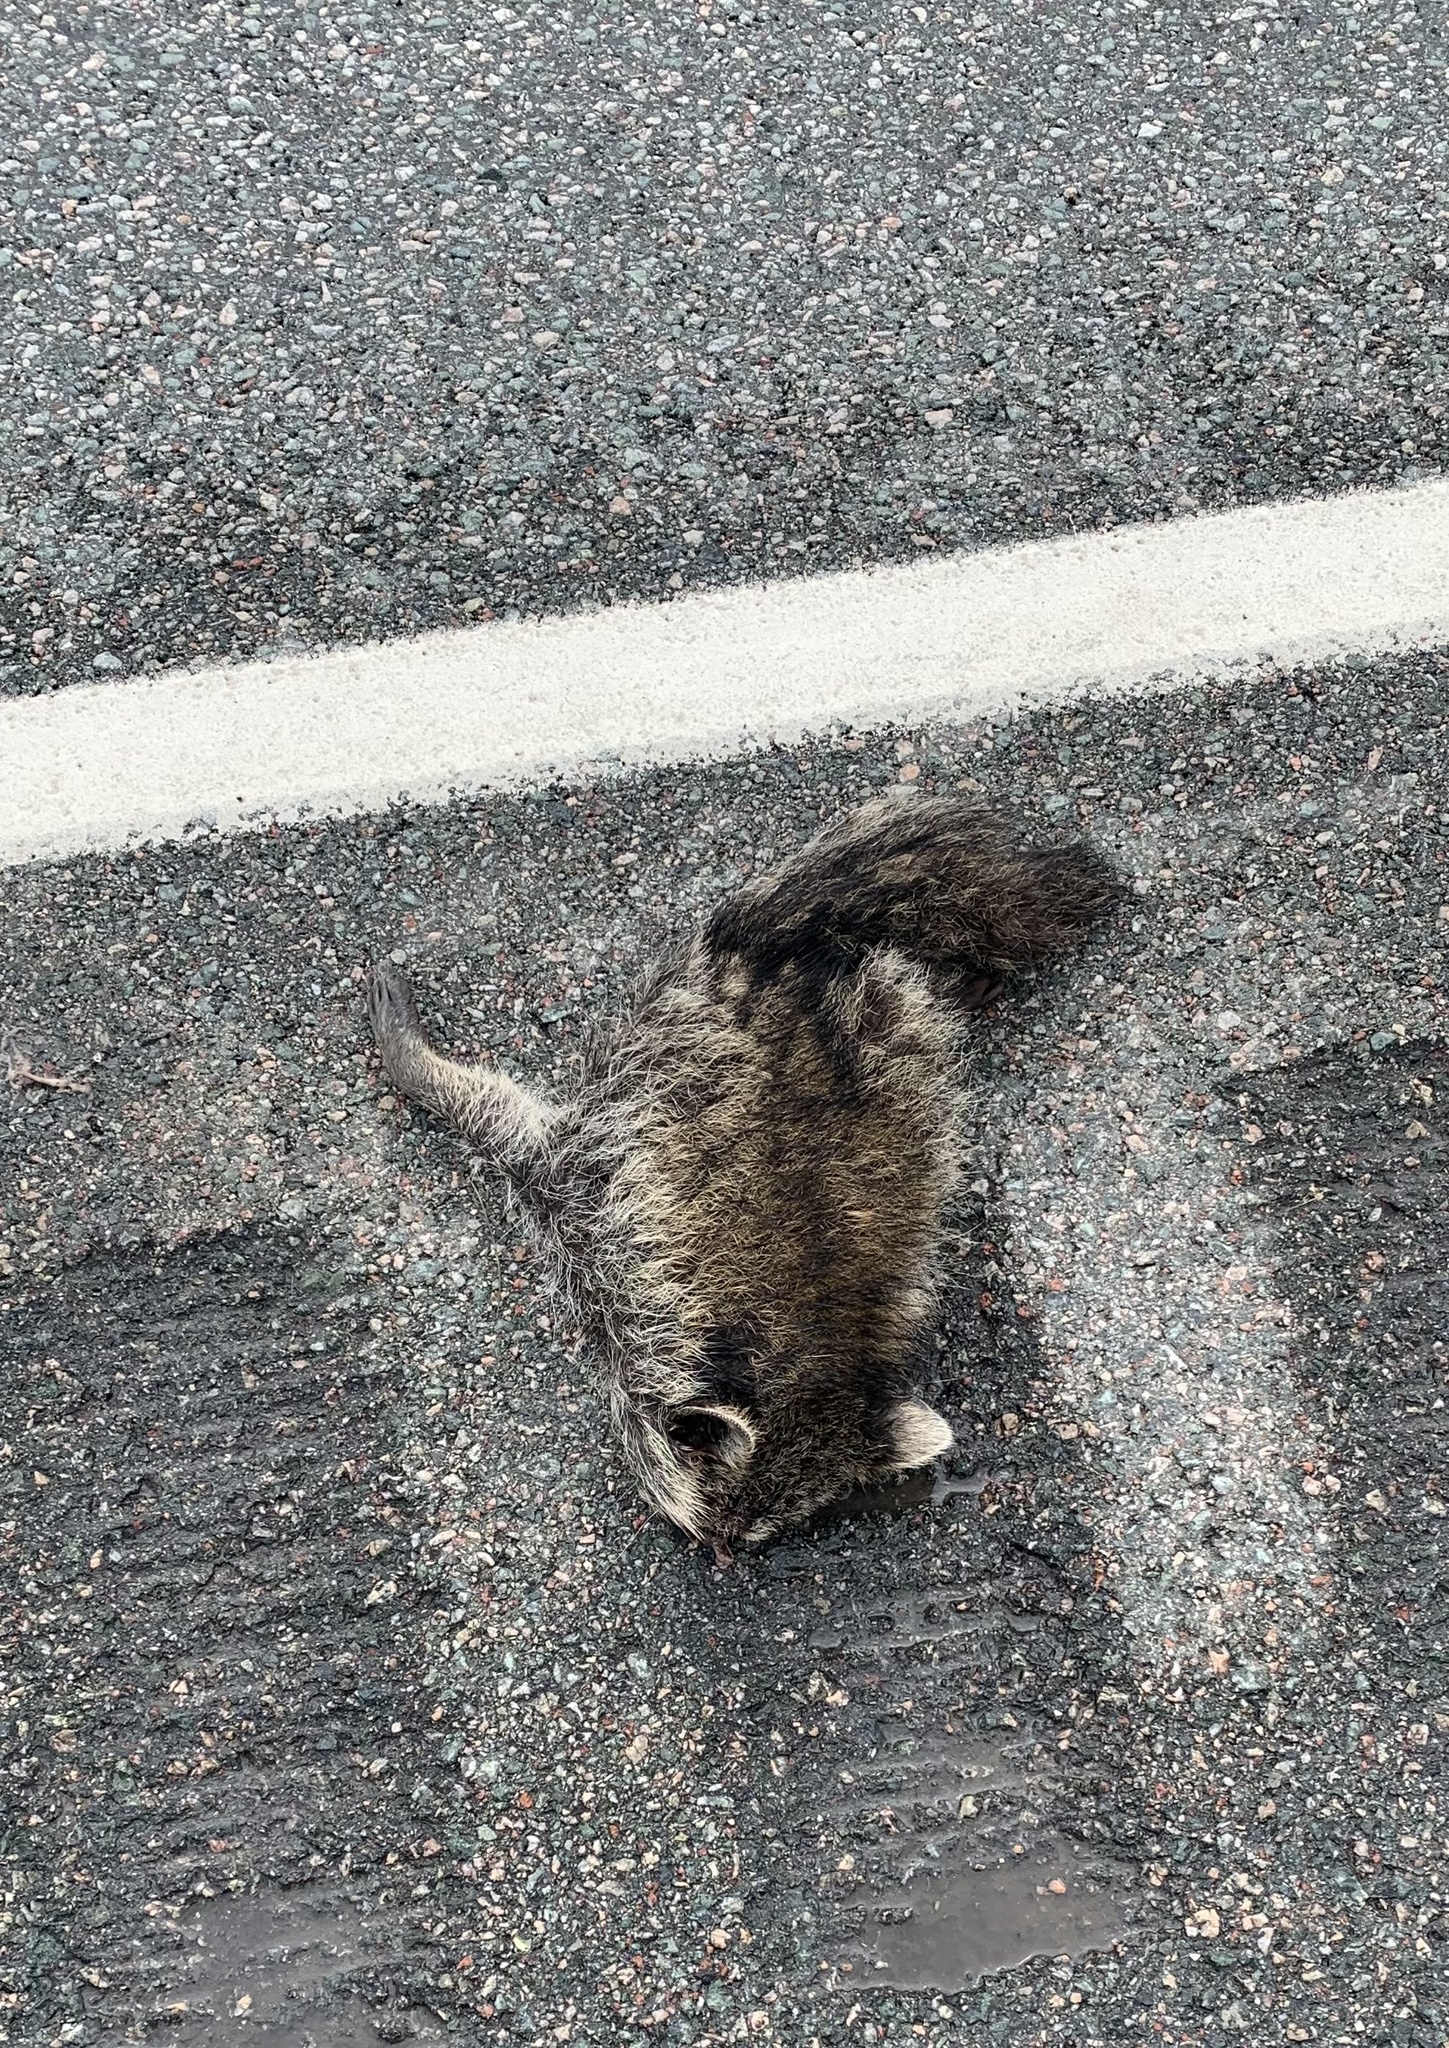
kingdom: Animalia
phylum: Chordata
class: Mammalia
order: Carnivora
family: Procyonidae
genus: Procyon
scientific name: Procyon lotor
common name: Raccoon
